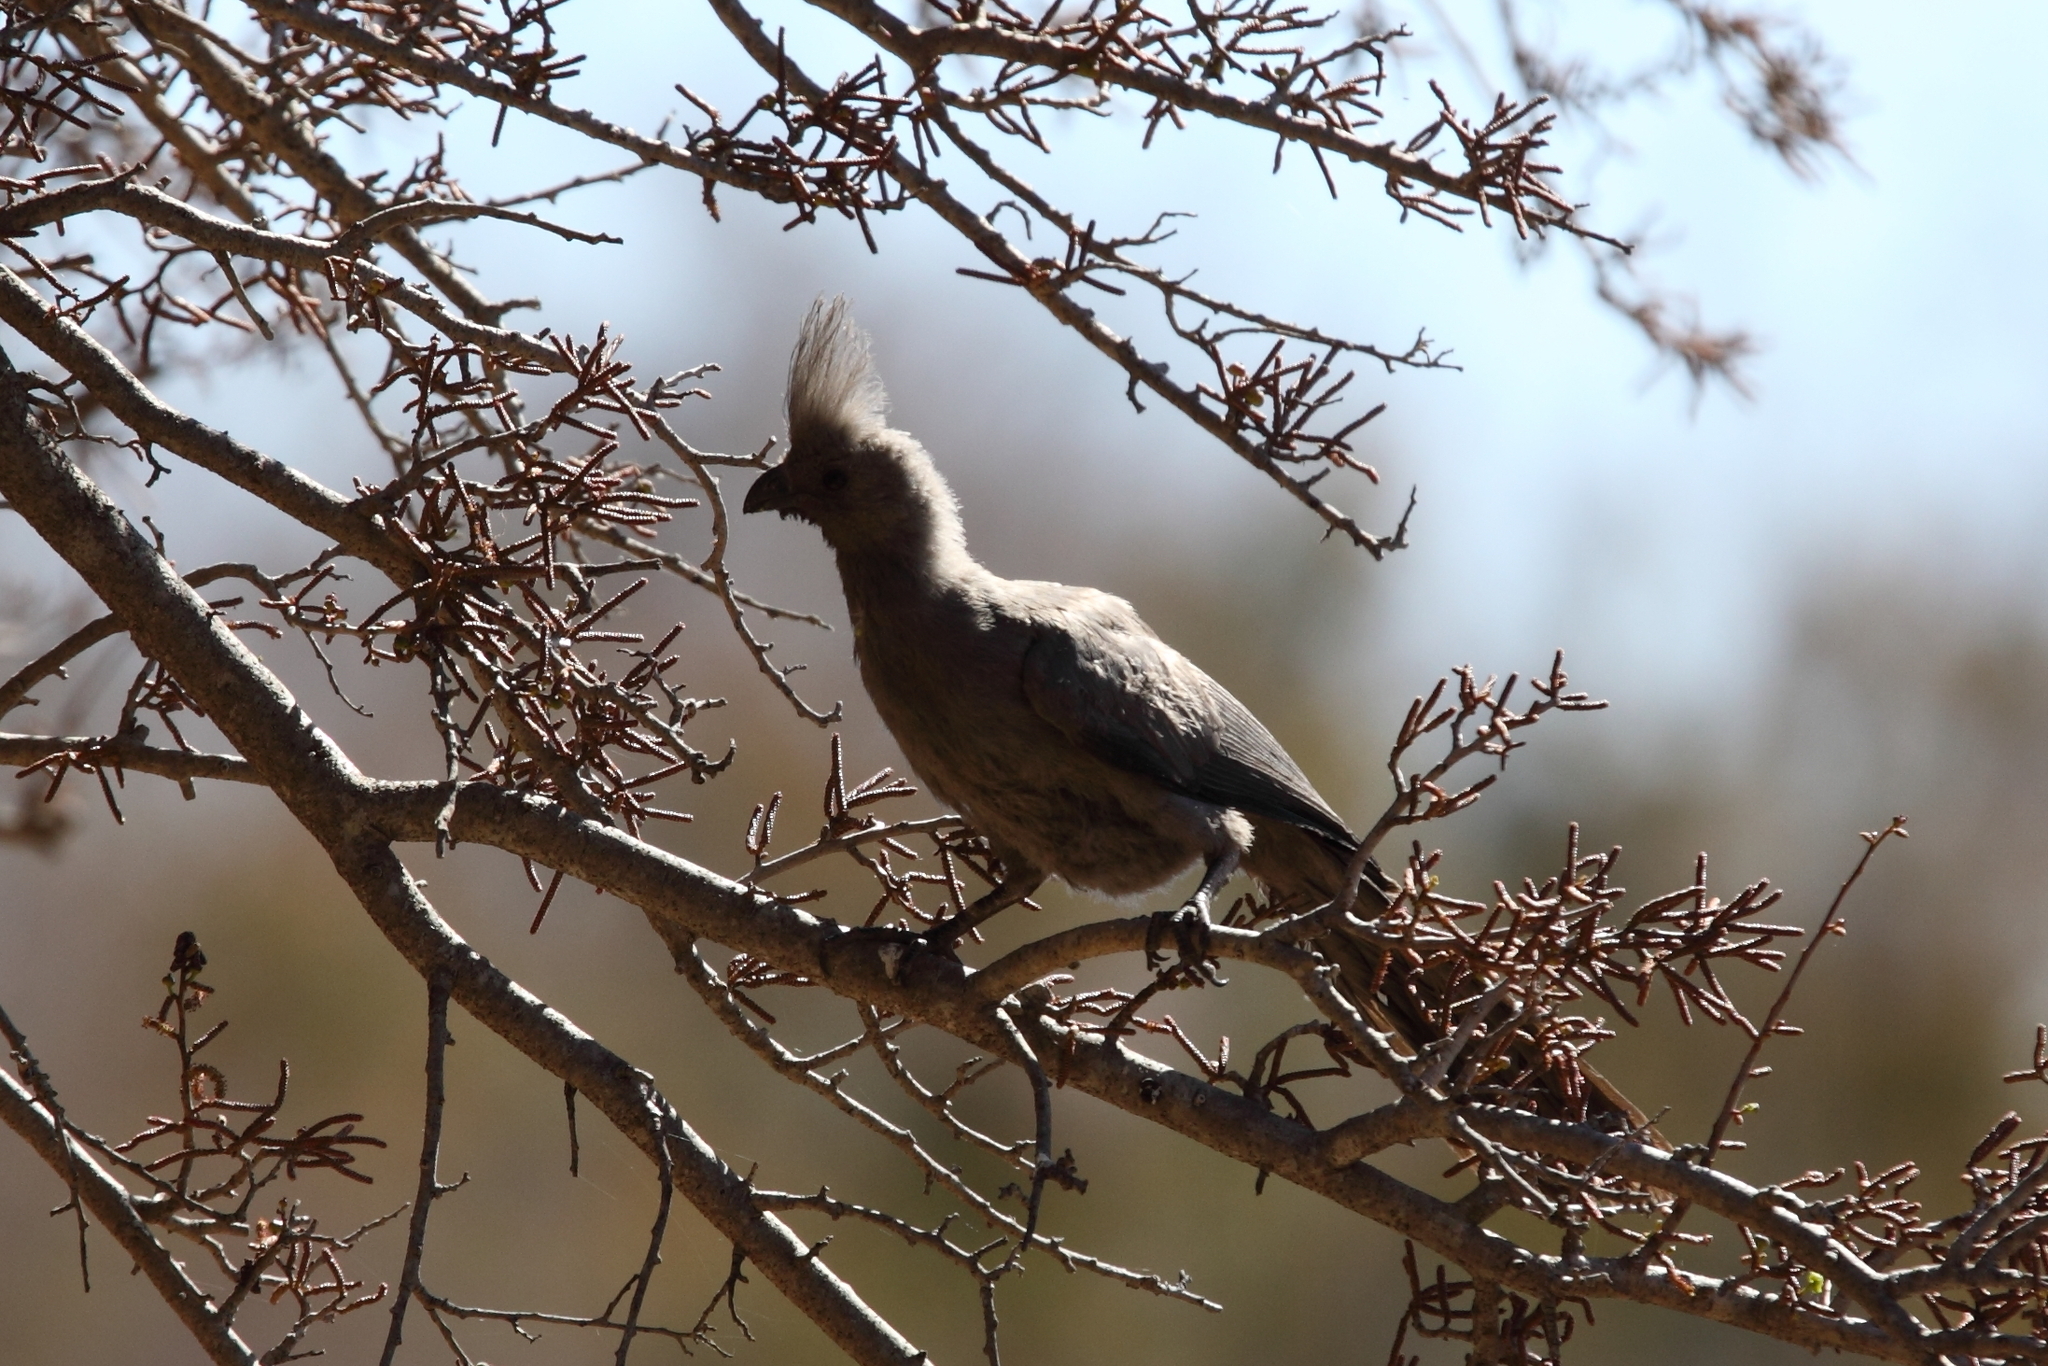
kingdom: Animalia
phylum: Chordata
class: Aves
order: Musophagiformes
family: Musophagidae
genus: Corythaixoides
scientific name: Corythaixoides concolor
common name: Grey go-away-bird
